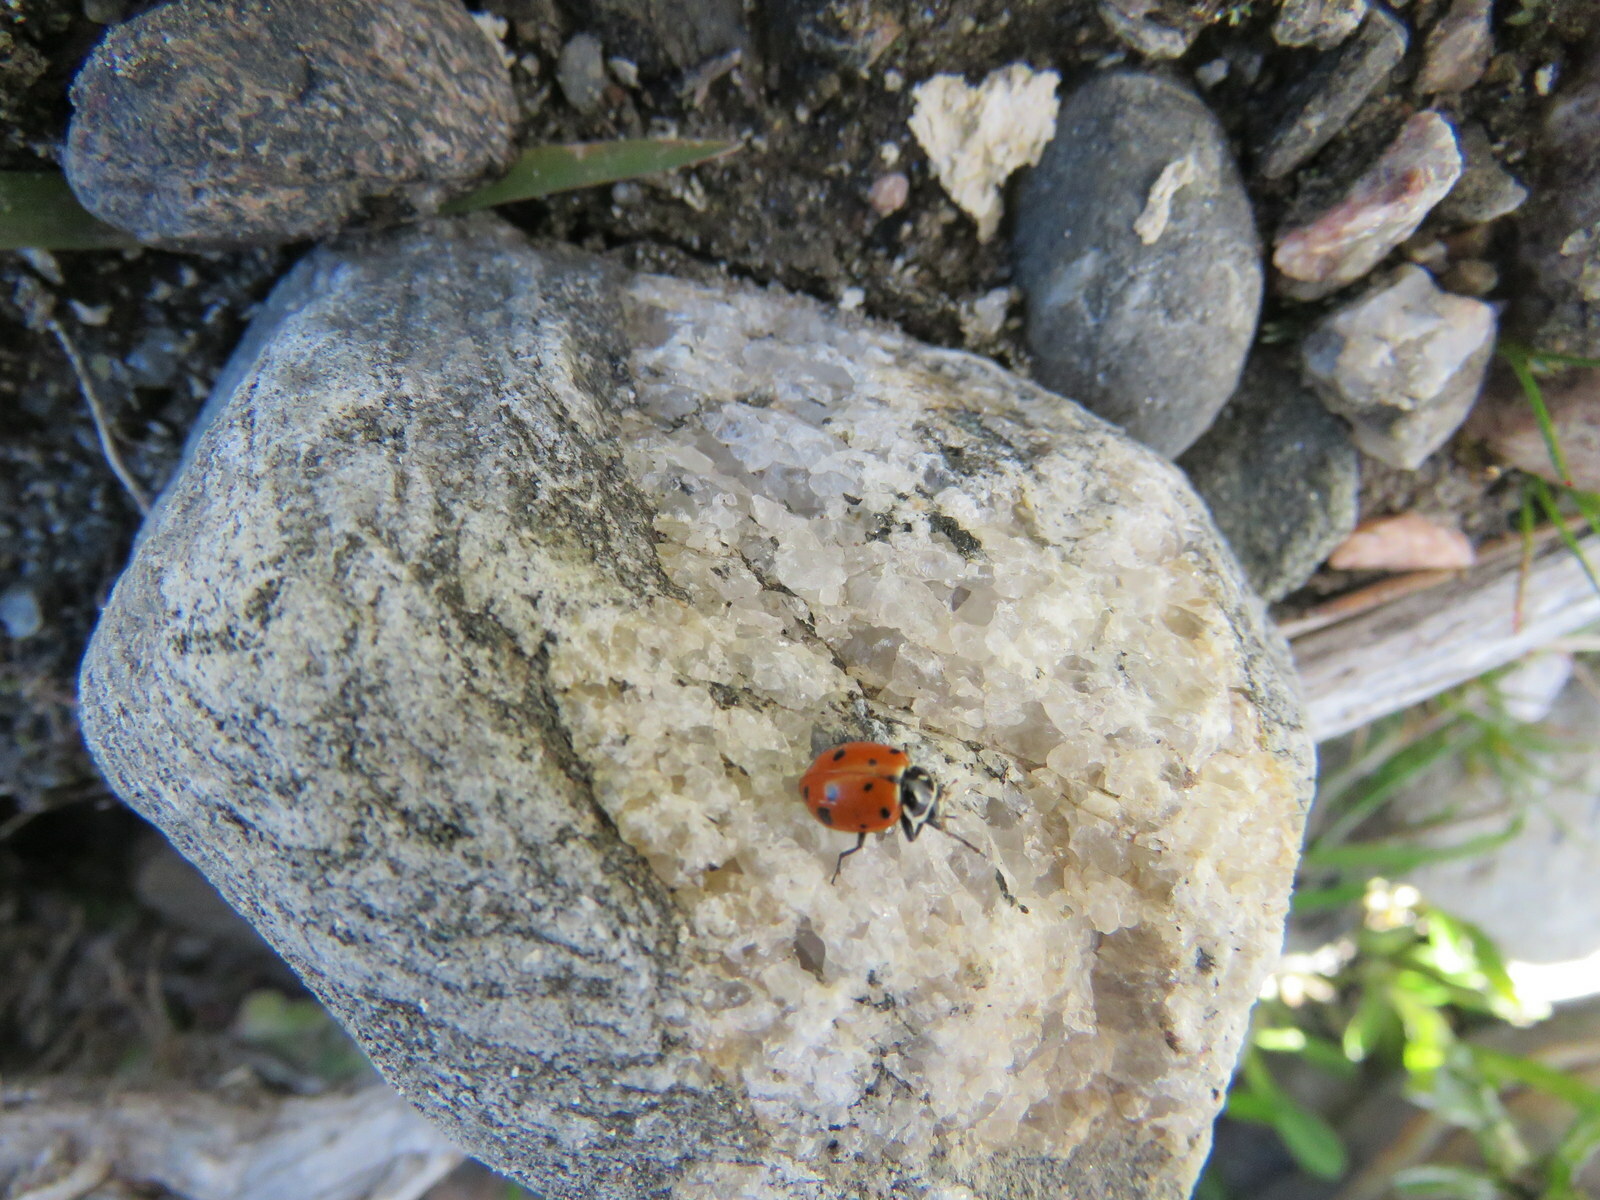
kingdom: Animalia
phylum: Arthropoda
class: Insecta
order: Coleoptera
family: Coccinellidae
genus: Hippodamia
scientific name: Hippodamia convergens
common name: Convergent lady beetle
